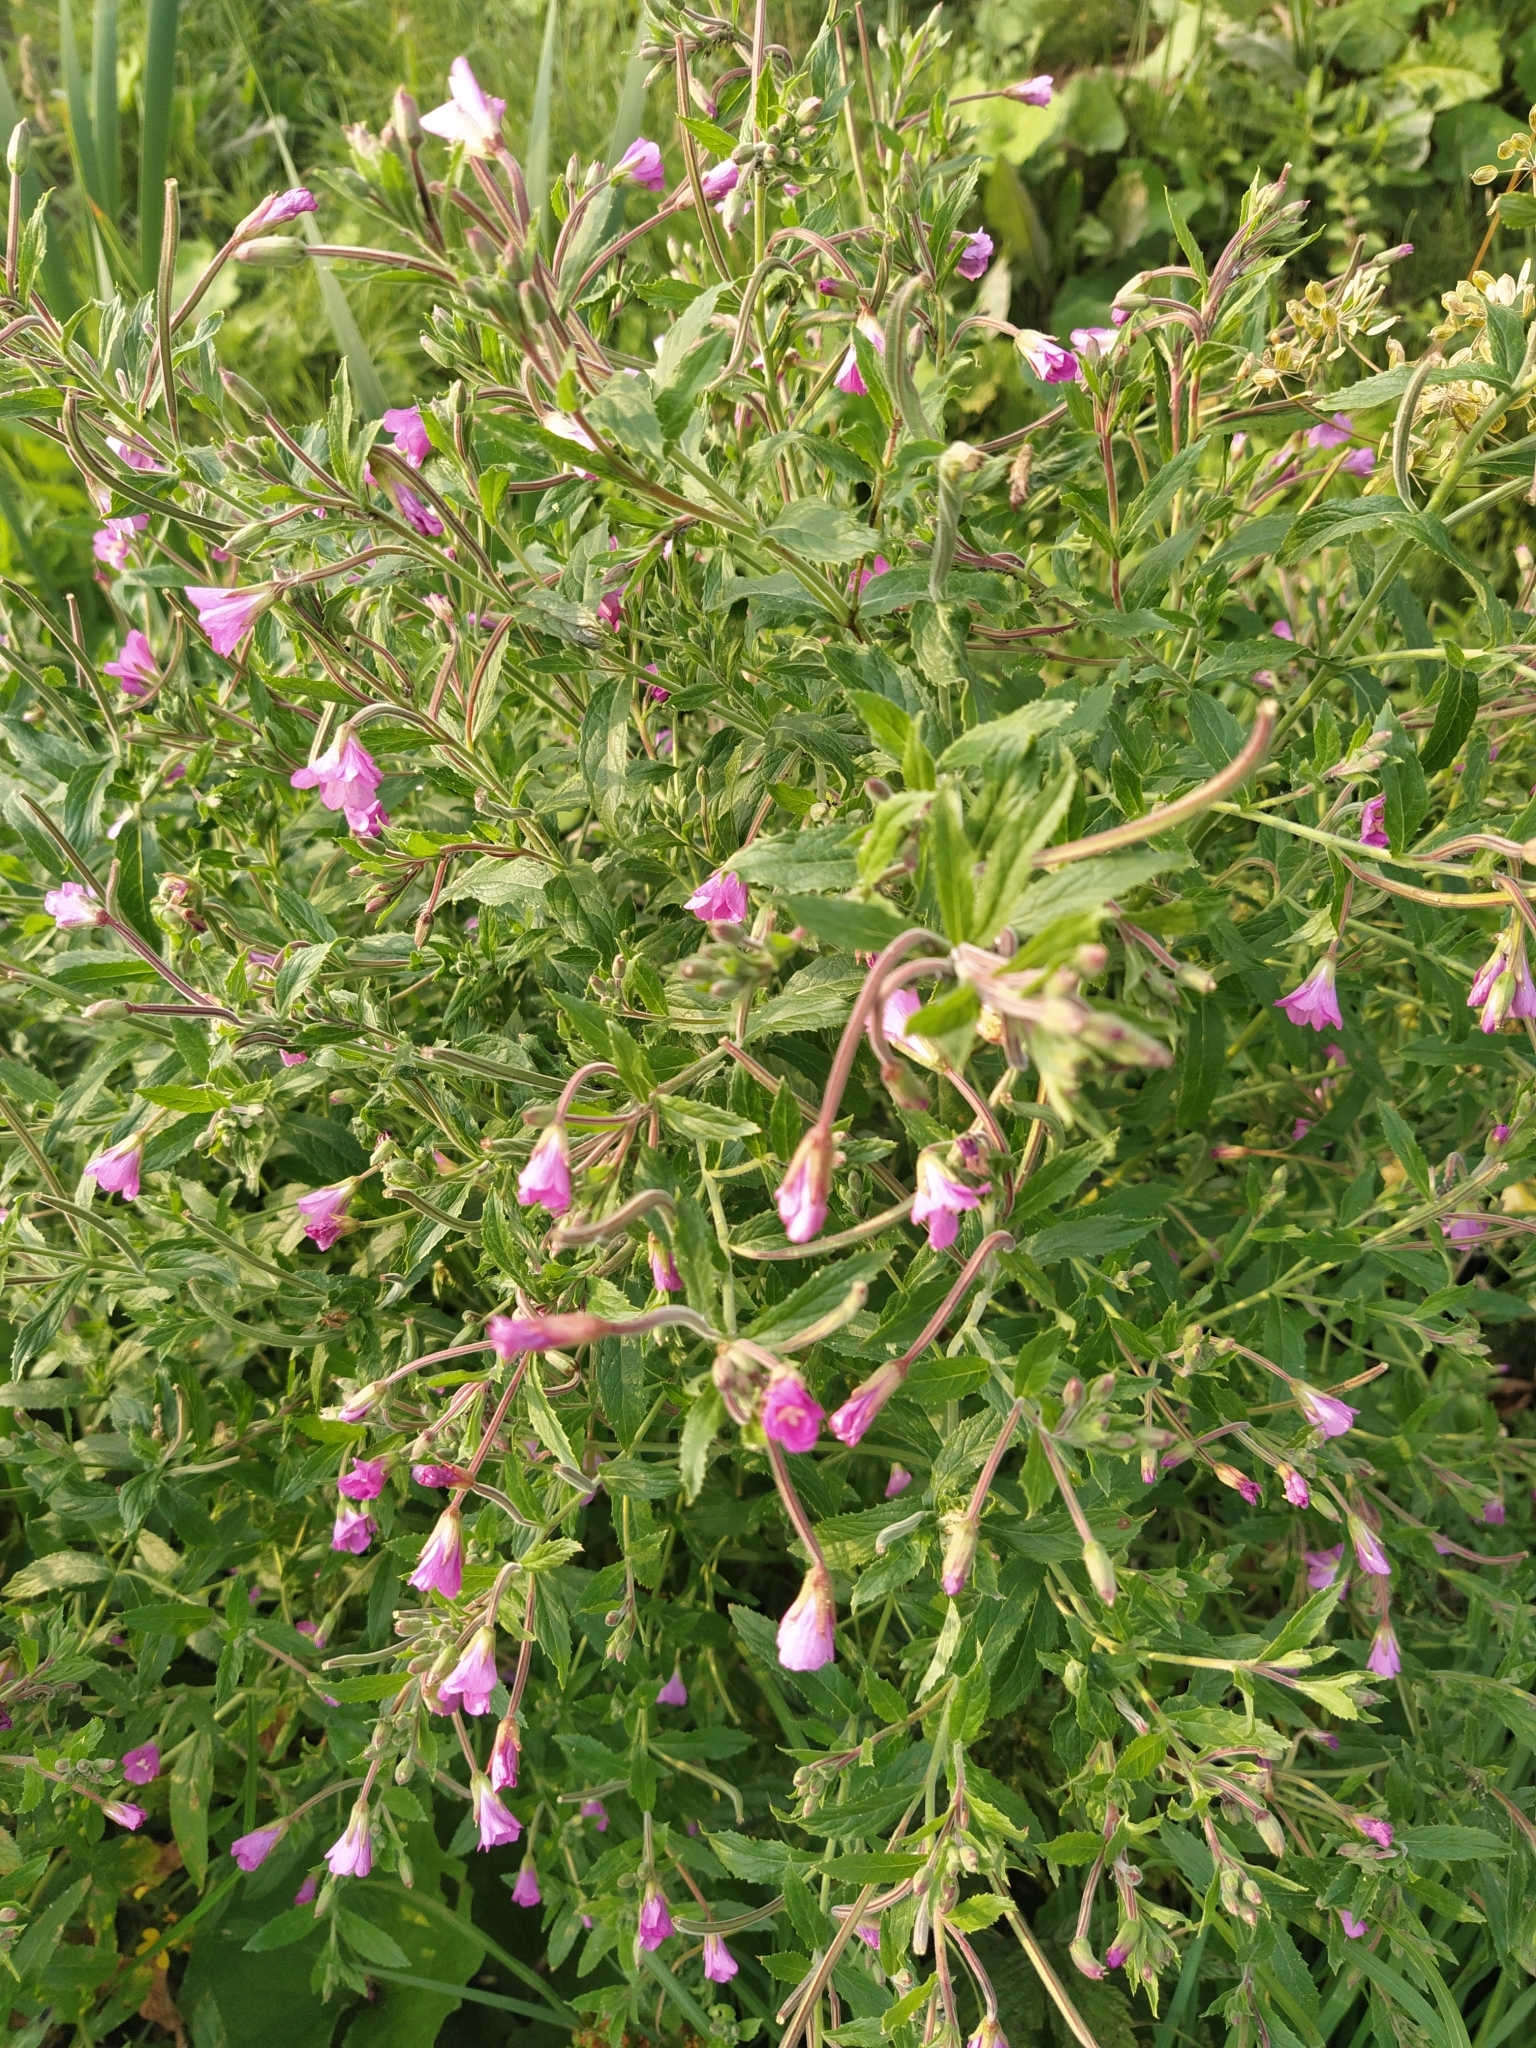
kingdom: Plantae
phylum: Tracheophyta
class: Magnoliopsida
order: Myrtales
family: Onagraceae
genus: Epilobium
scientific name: Epilobium hirsutum
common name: Great willowherb
